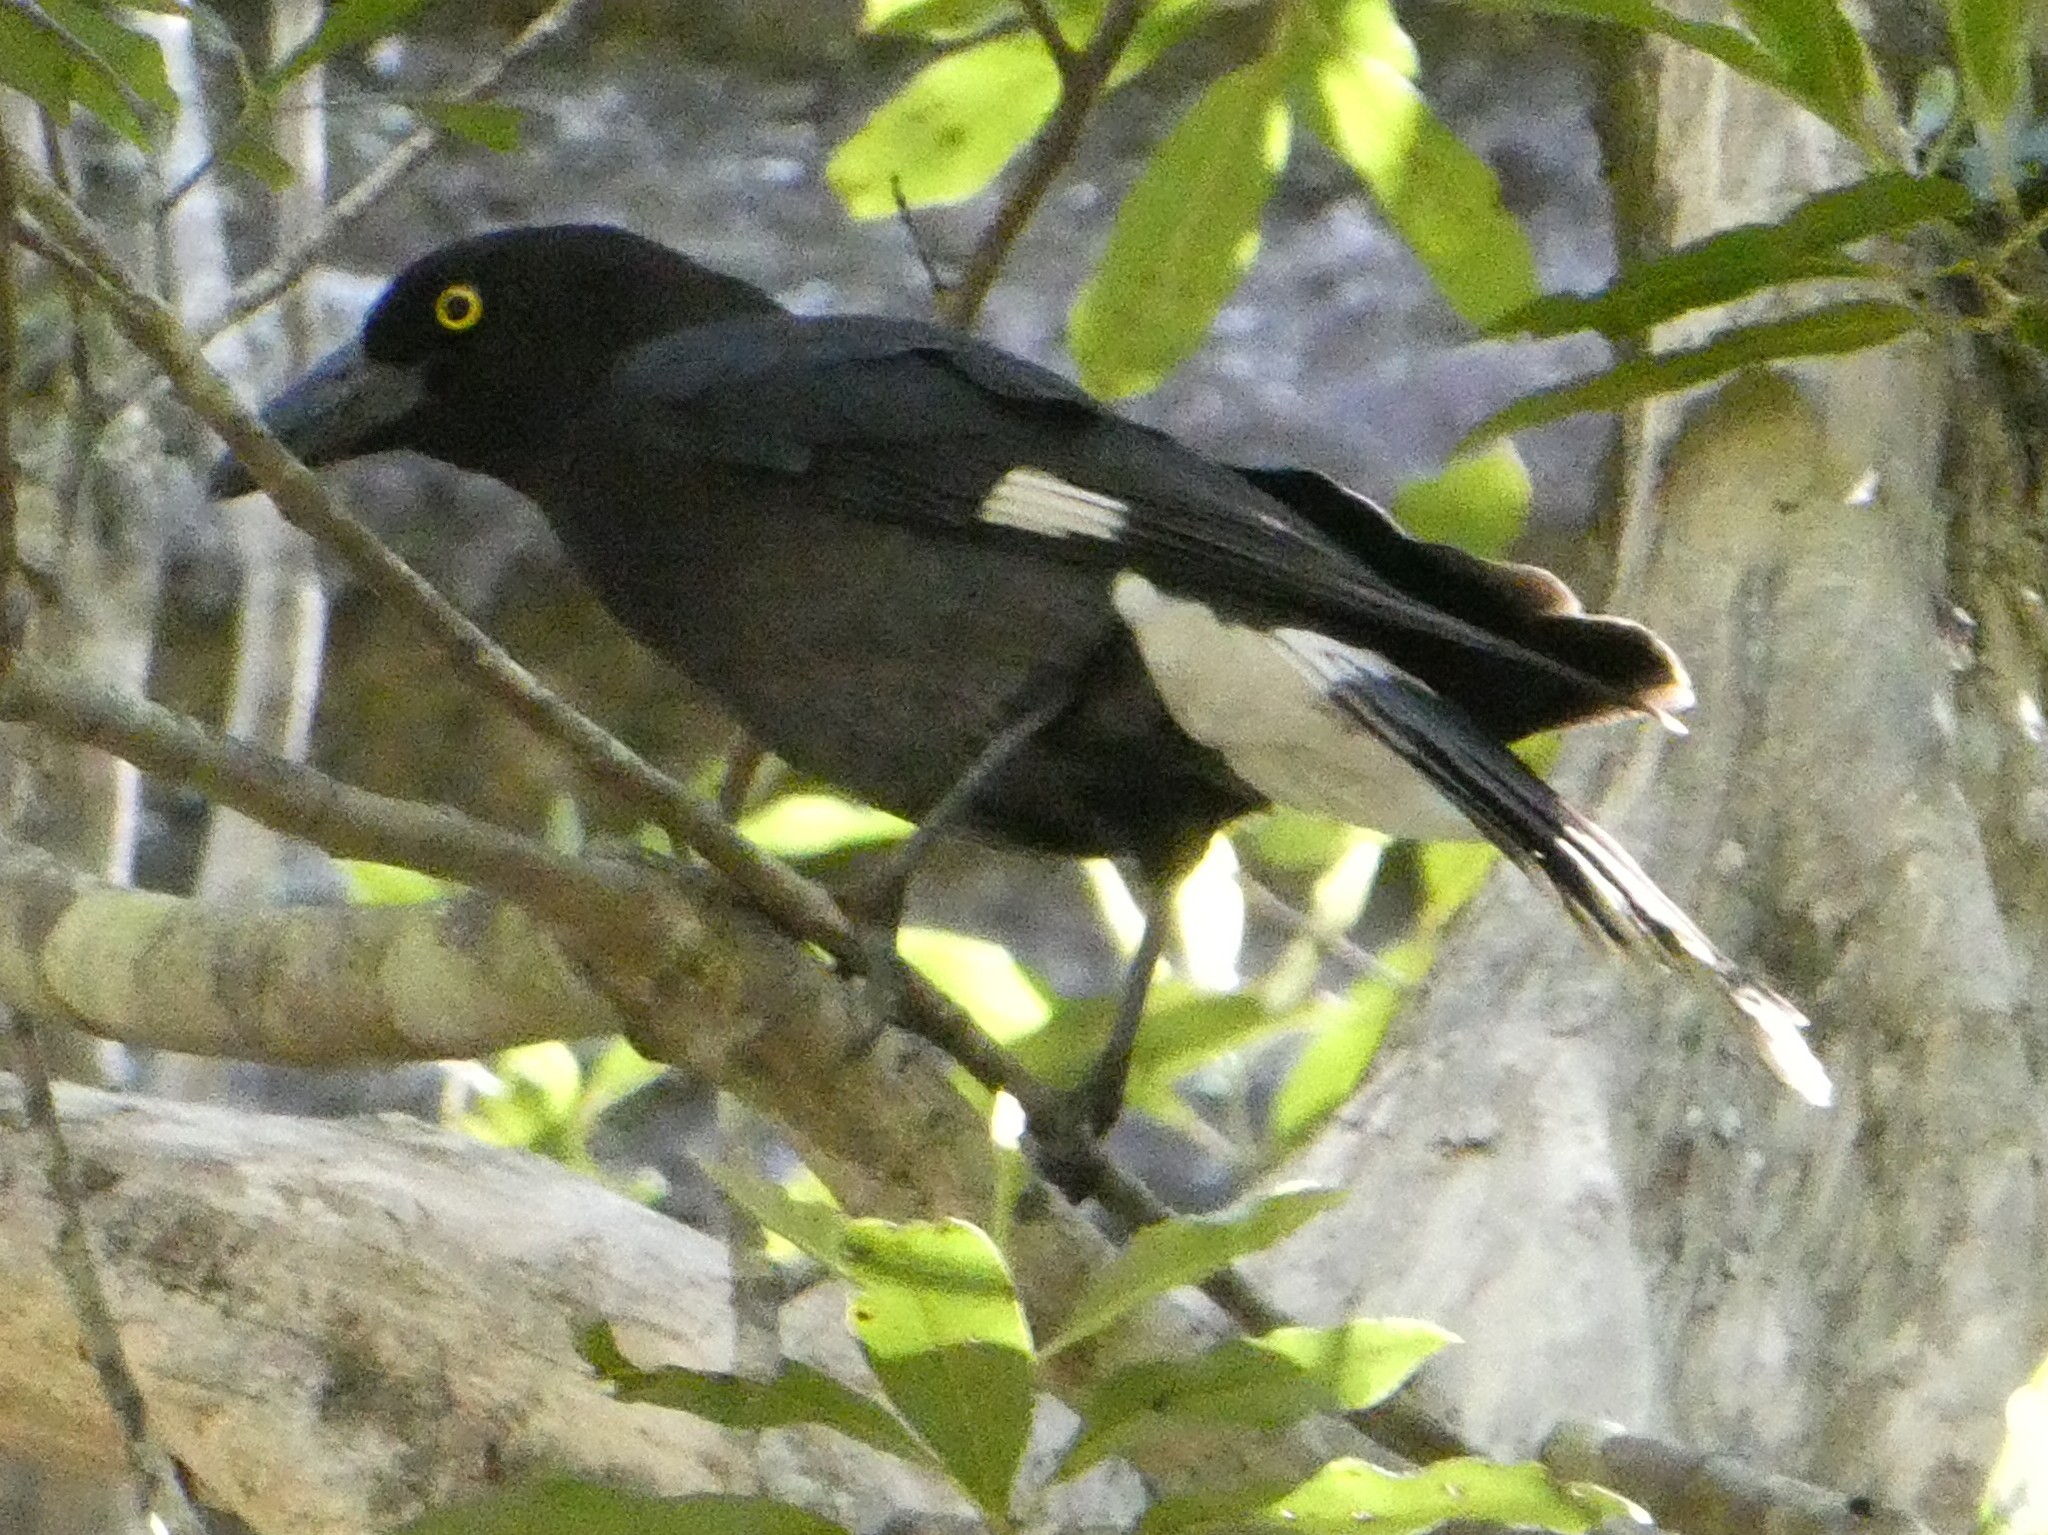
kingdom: Animalia
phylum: Chordata
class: Aves
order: Passeriformes
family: Cracticidae
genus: Strepera
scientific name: Strepera graculina
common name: Pied currawong
